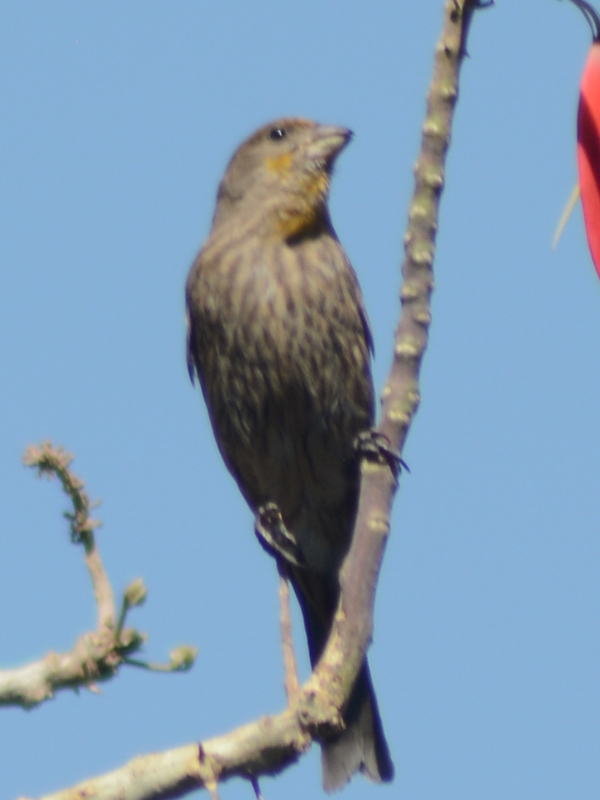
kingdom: Animalia
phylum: Chordata
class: Aves
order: Passeriformes
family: Fringillidae
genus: Haemorhous
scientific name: Haemorhous mexicanus
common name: House finch
